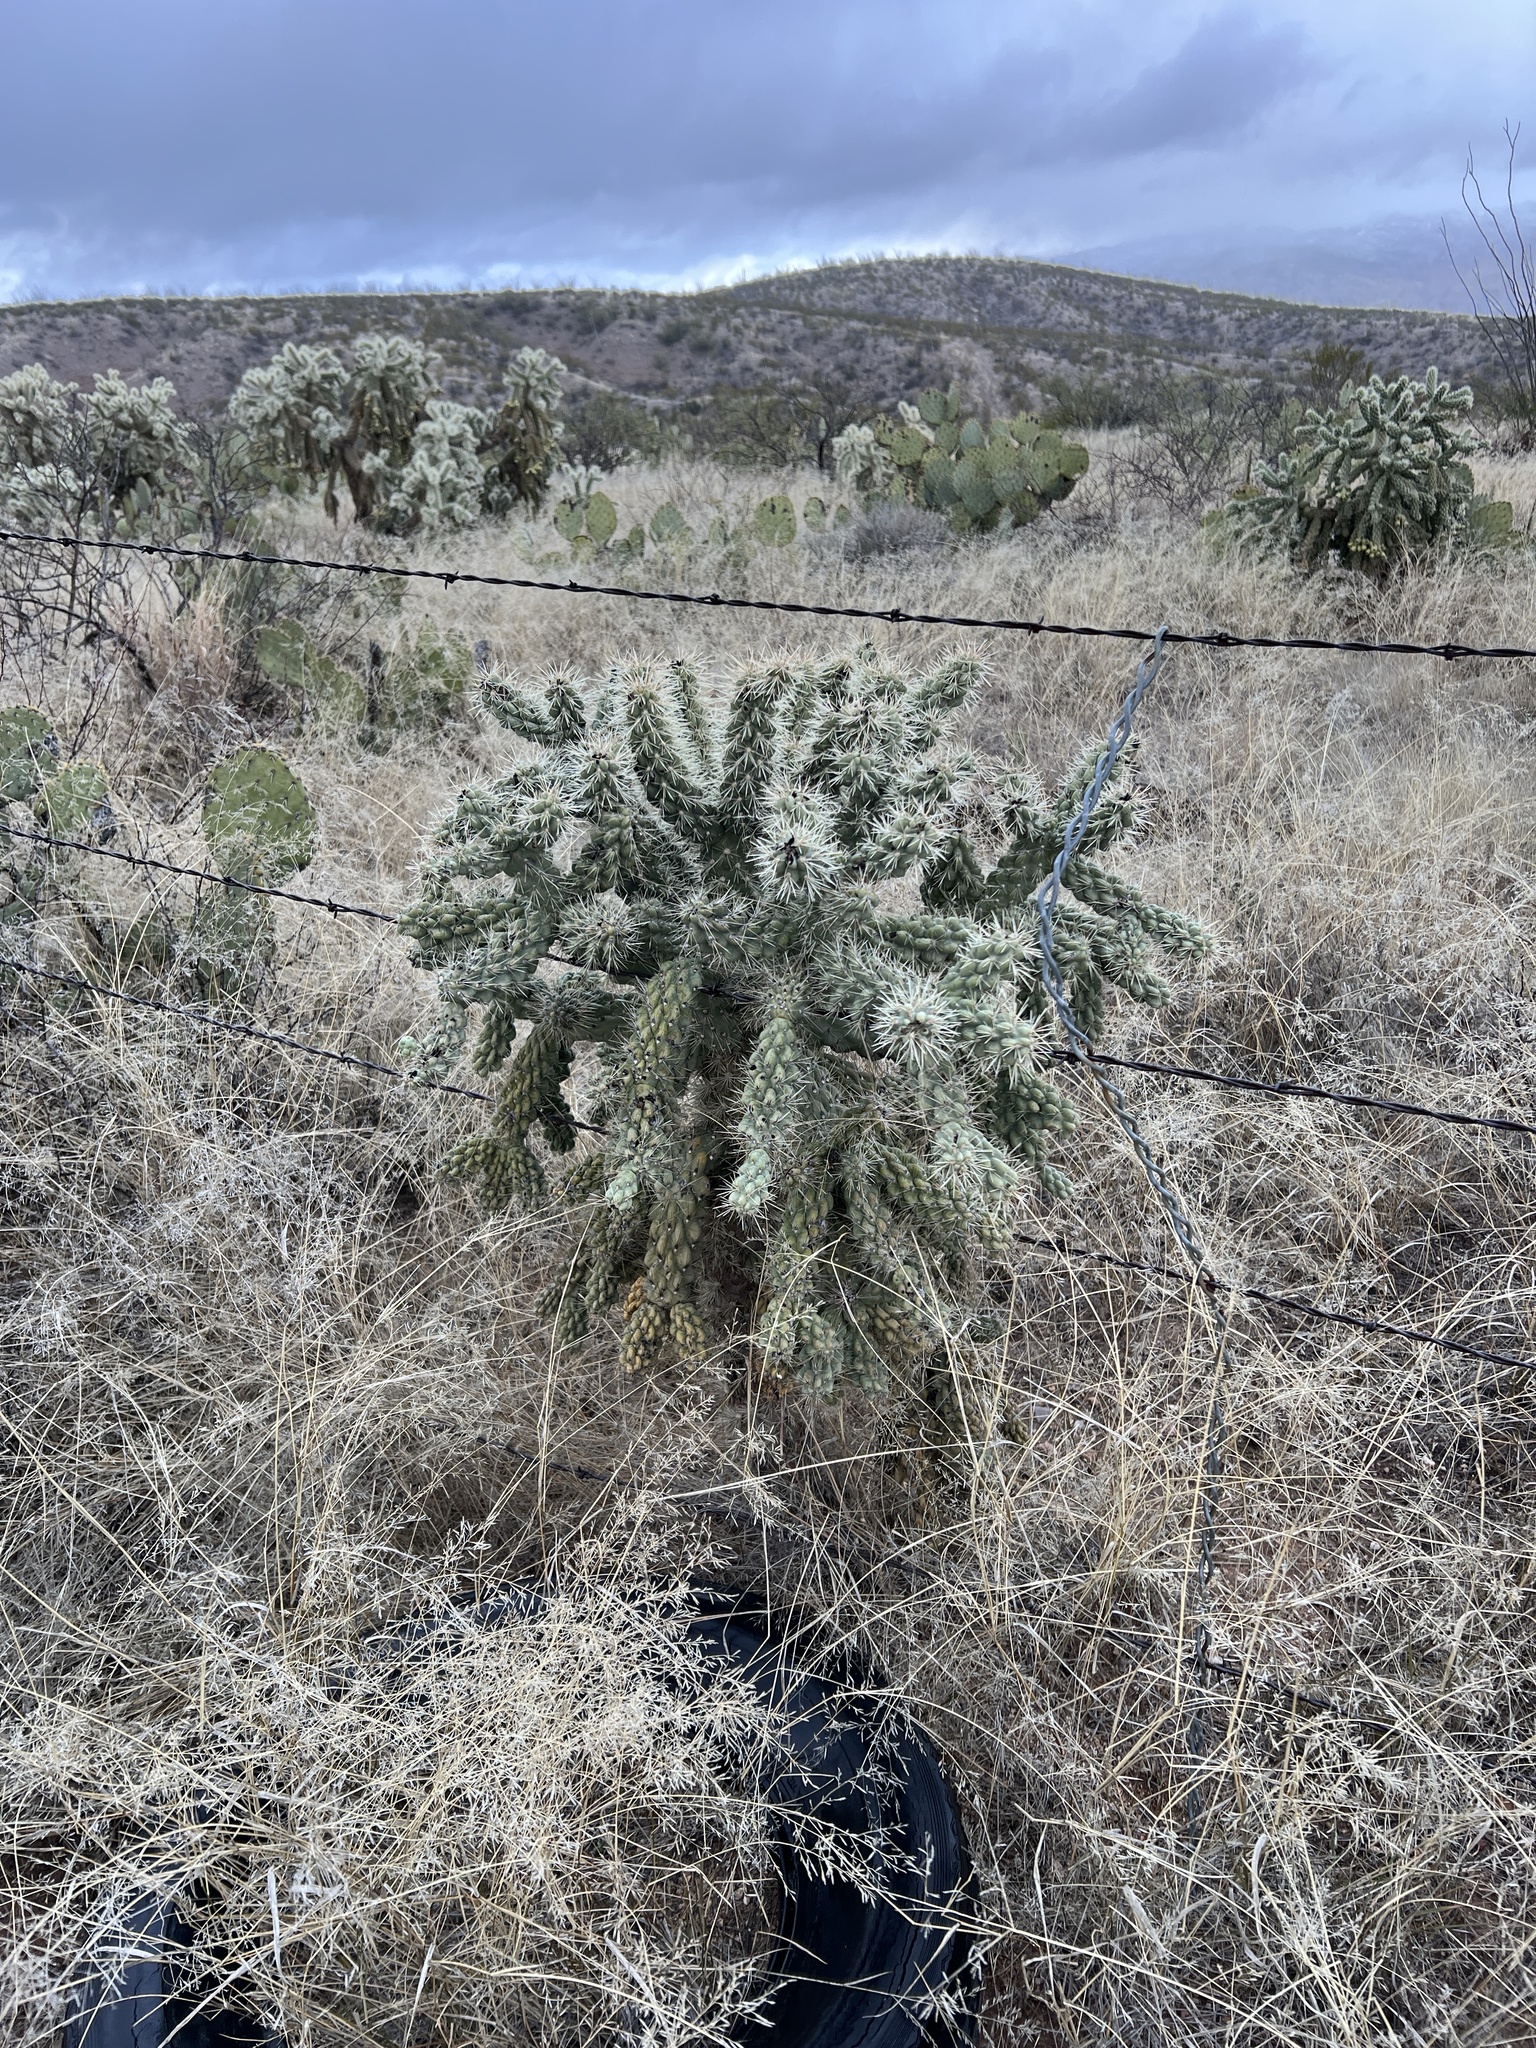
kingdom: Plantae
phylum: Tracheophyta
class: Magnoliopsida
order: Caryophyllales
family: Cactaceae
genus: Cylindropuntia
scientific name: Cylindropuntia fulgida
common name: Jumping cholla
